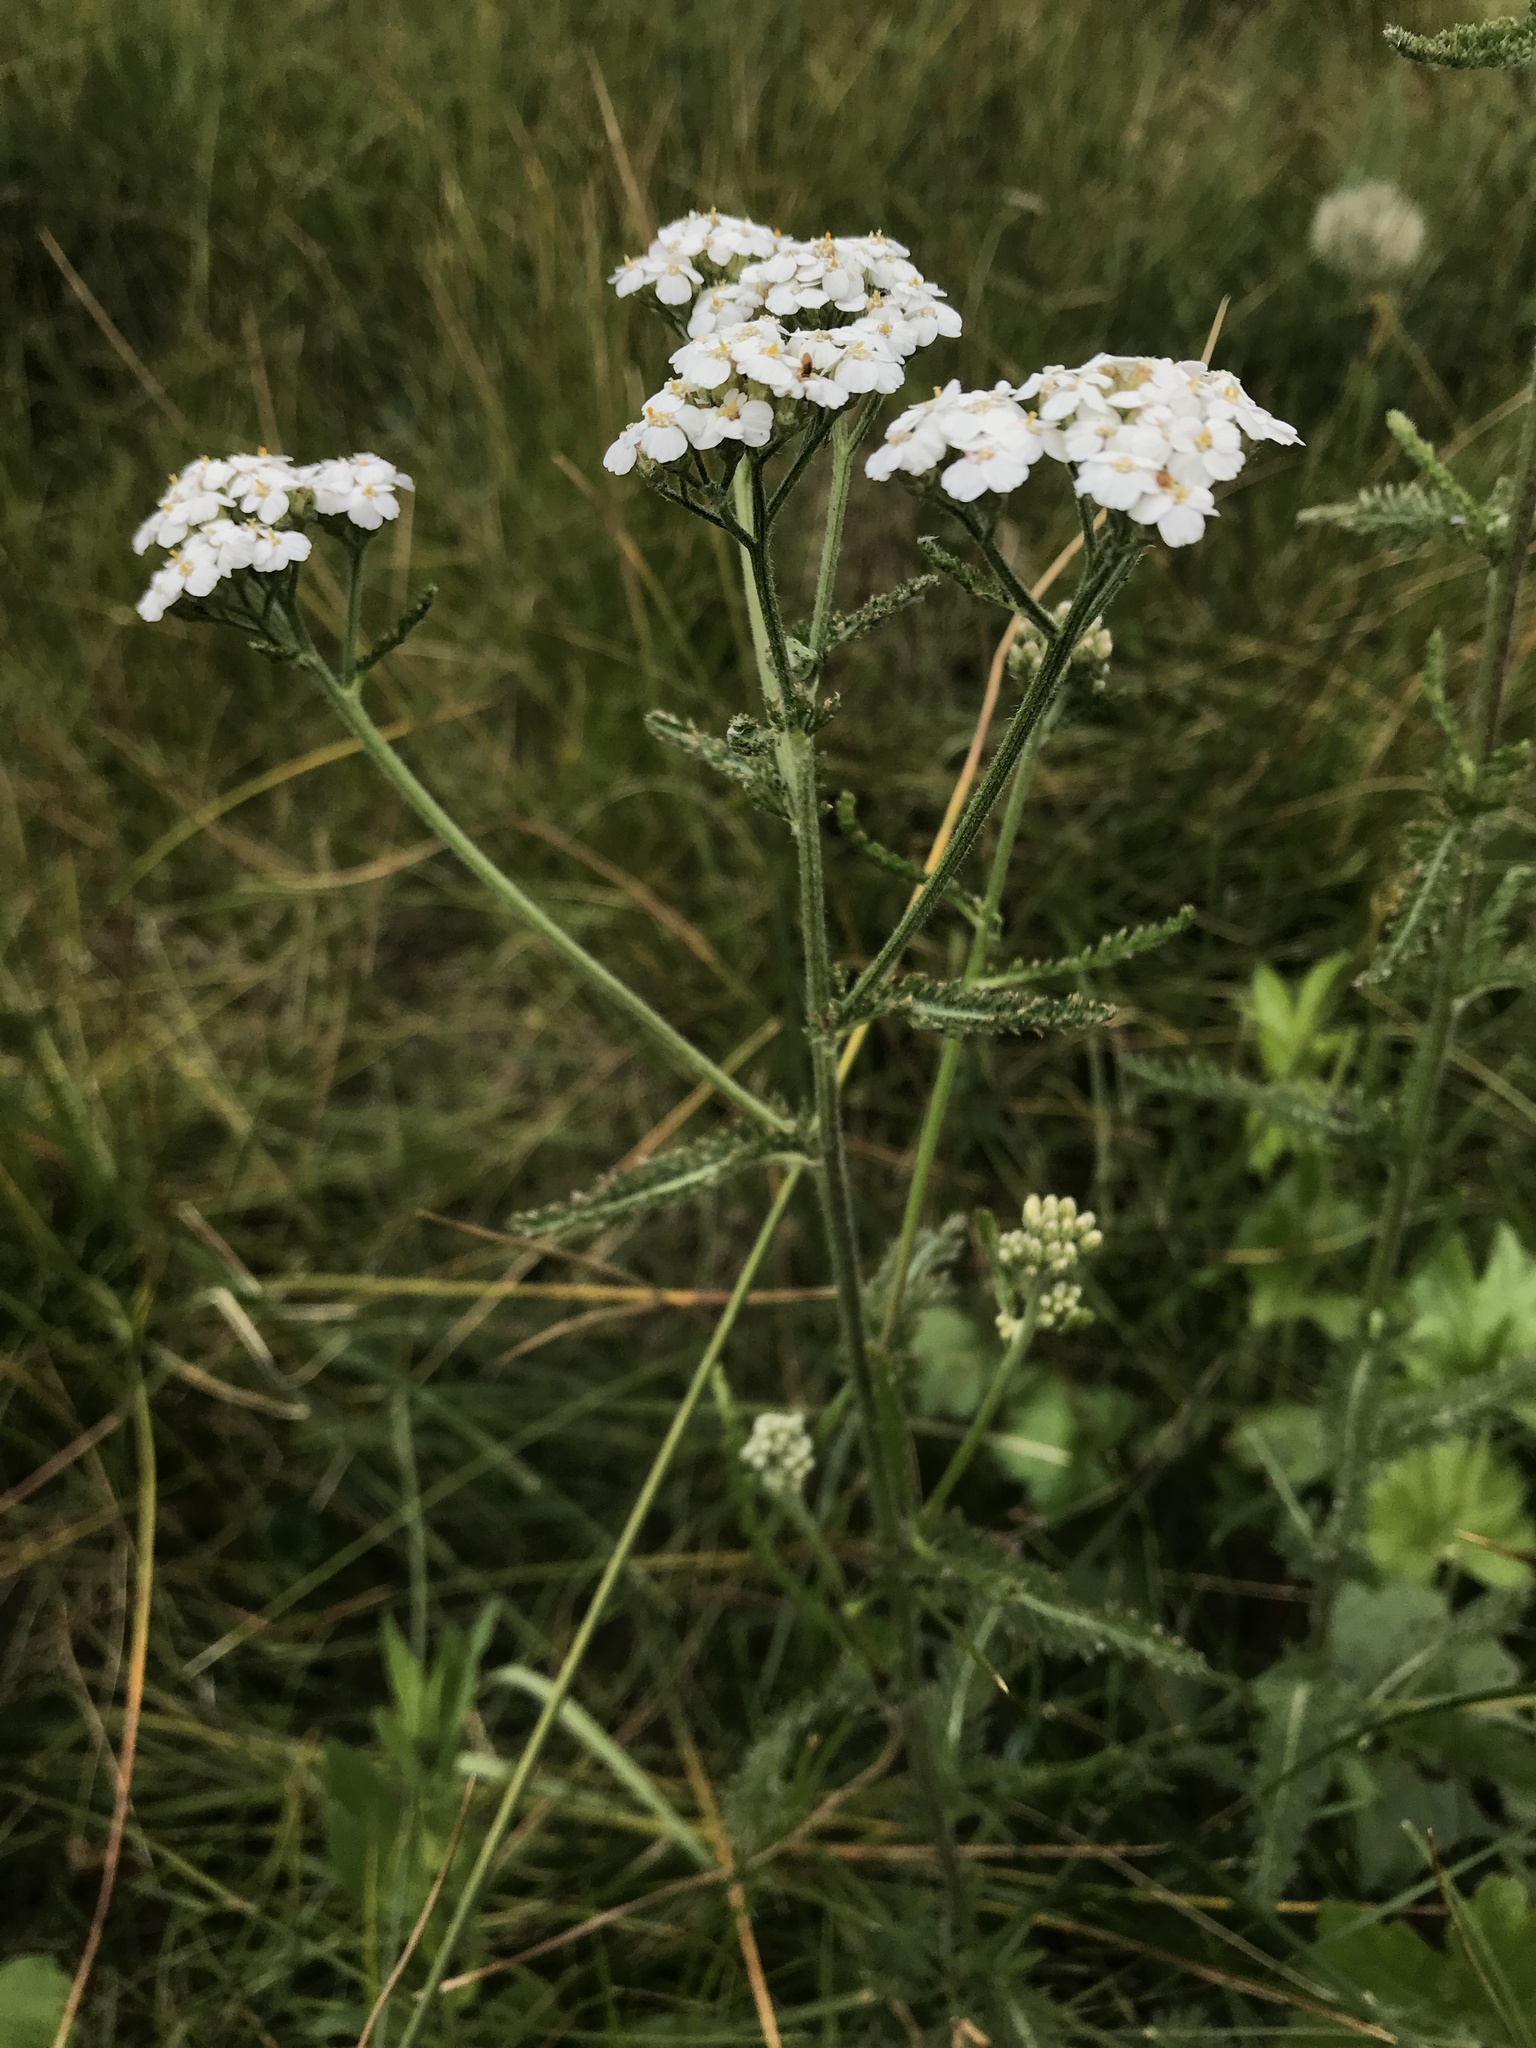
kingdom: Plantae
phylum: Tracheophyta
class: Magnoliopsida
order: Asterales
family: Asteraceae
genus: Achillea
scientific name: Achillea millefolium
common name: Yarrow
